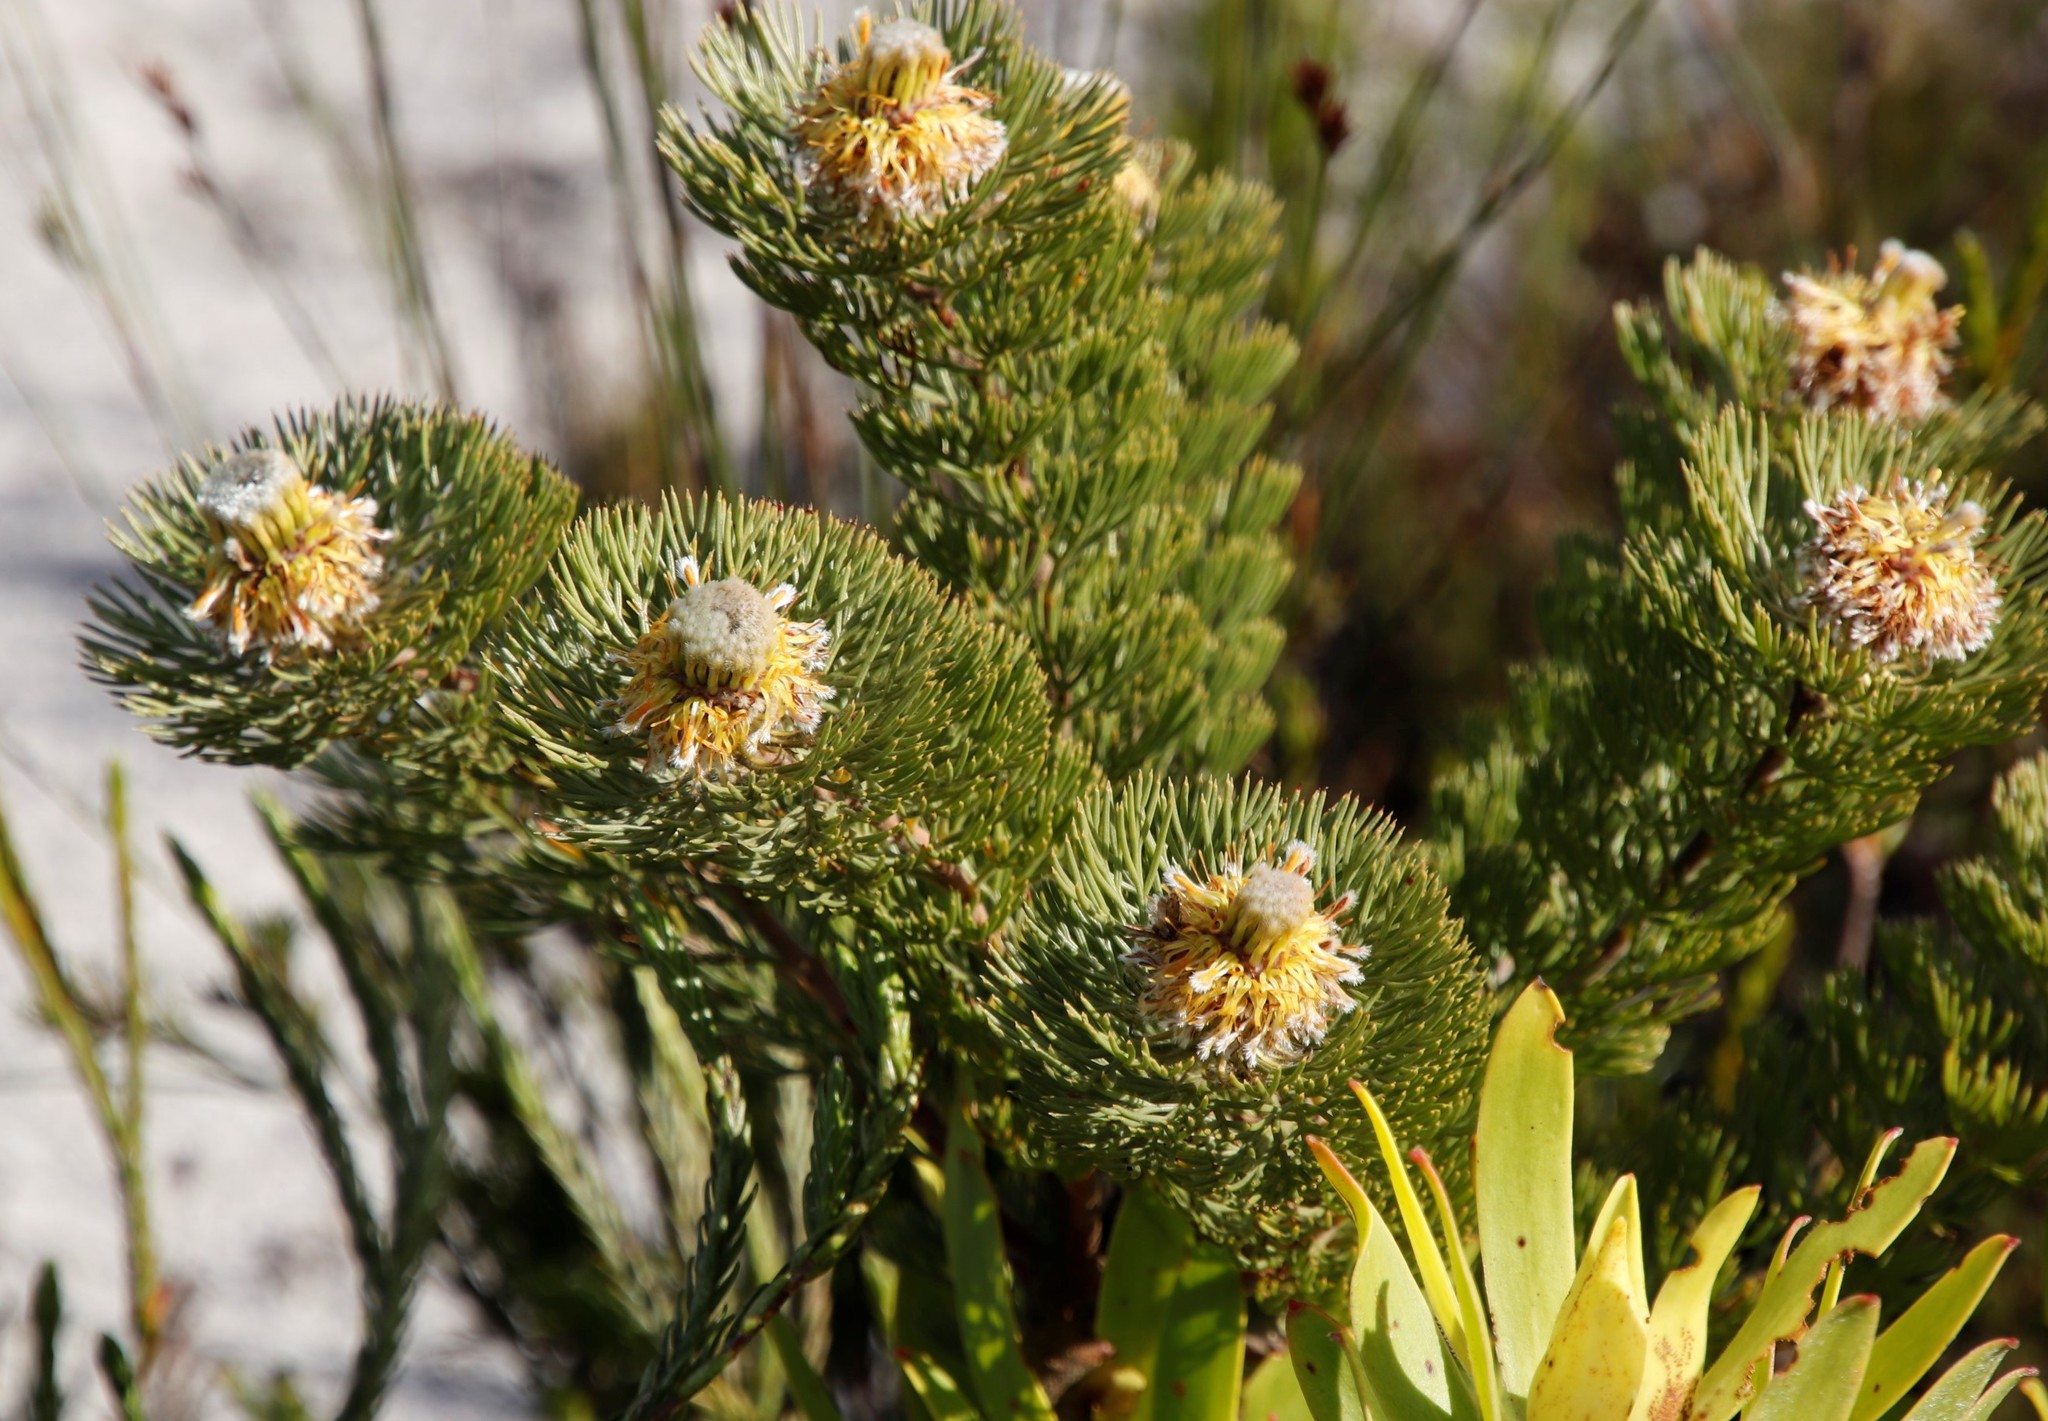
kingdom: Plantae
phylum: Tracheophyta
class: Magnoliopsida
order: Proteales
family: Proteaceae
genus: Serruria
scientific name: Serruria villosa
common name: Golden spiderhead
